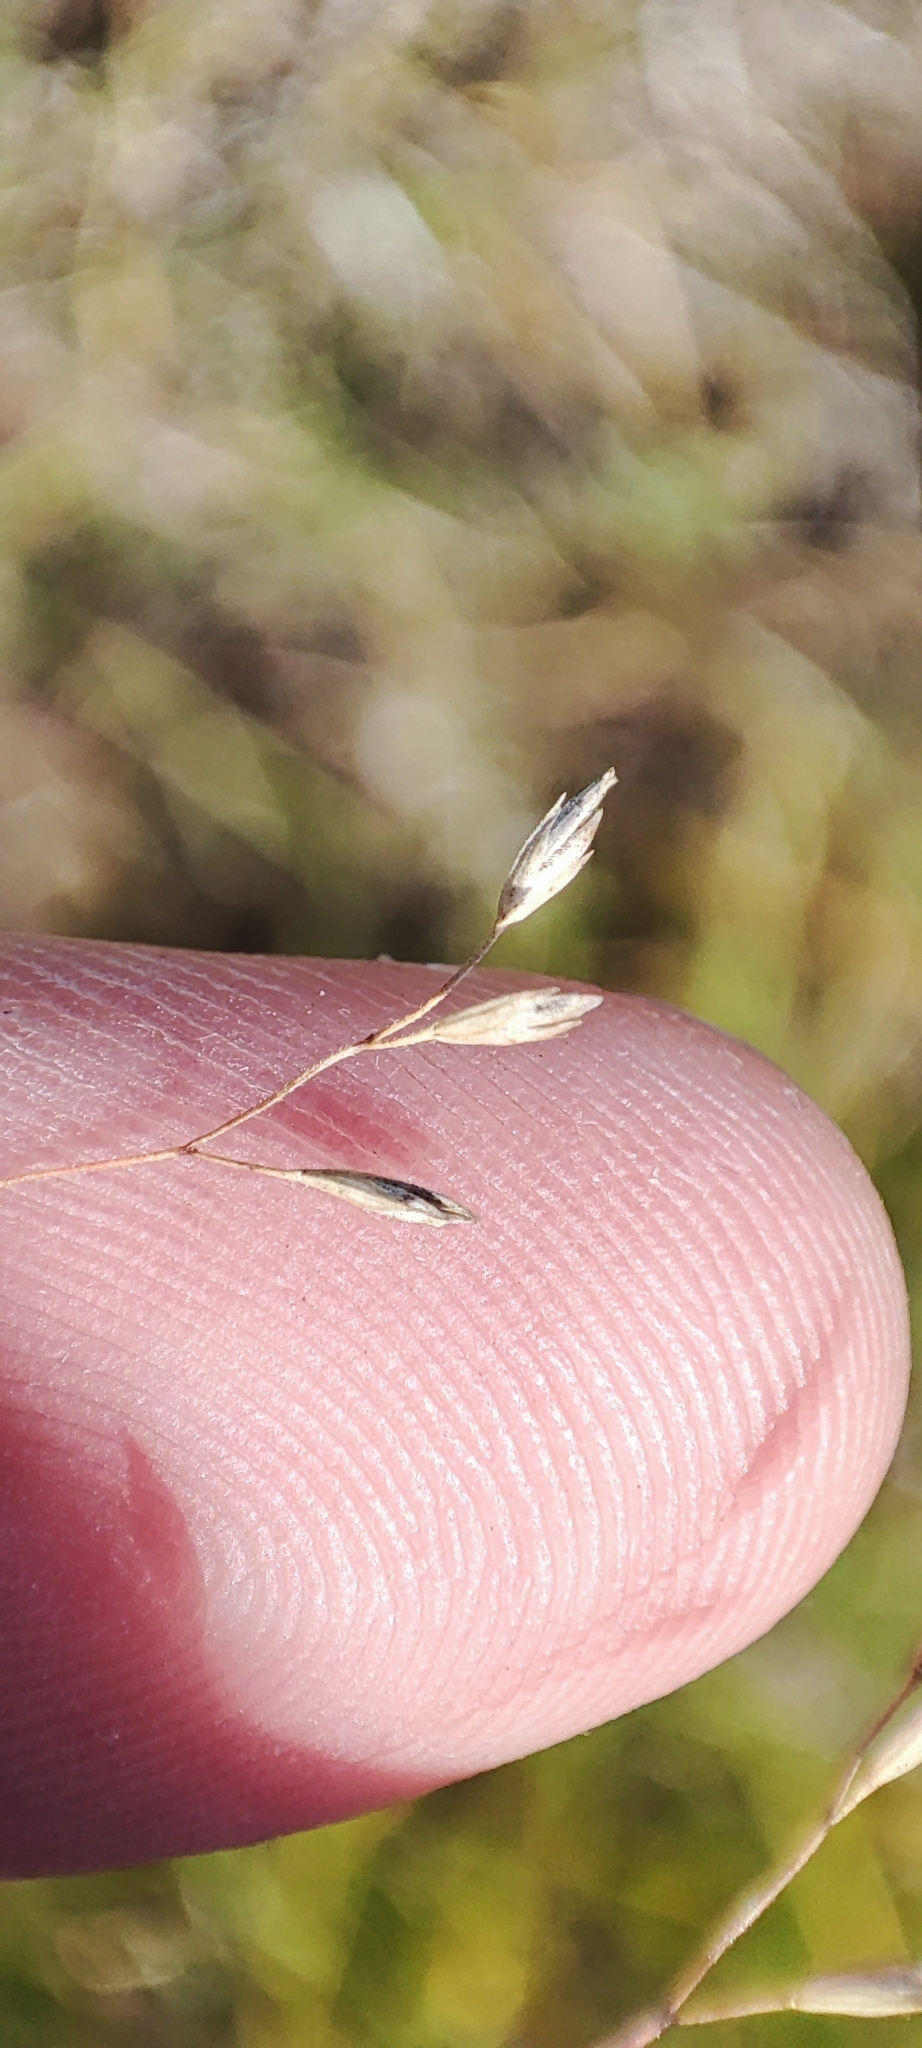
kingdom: Plantae
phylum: Tracheophyta
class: Liliopsida
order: Poales
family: Poaceae
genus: Poa
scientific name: Poa palustris
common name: Swamp meadow-grass
